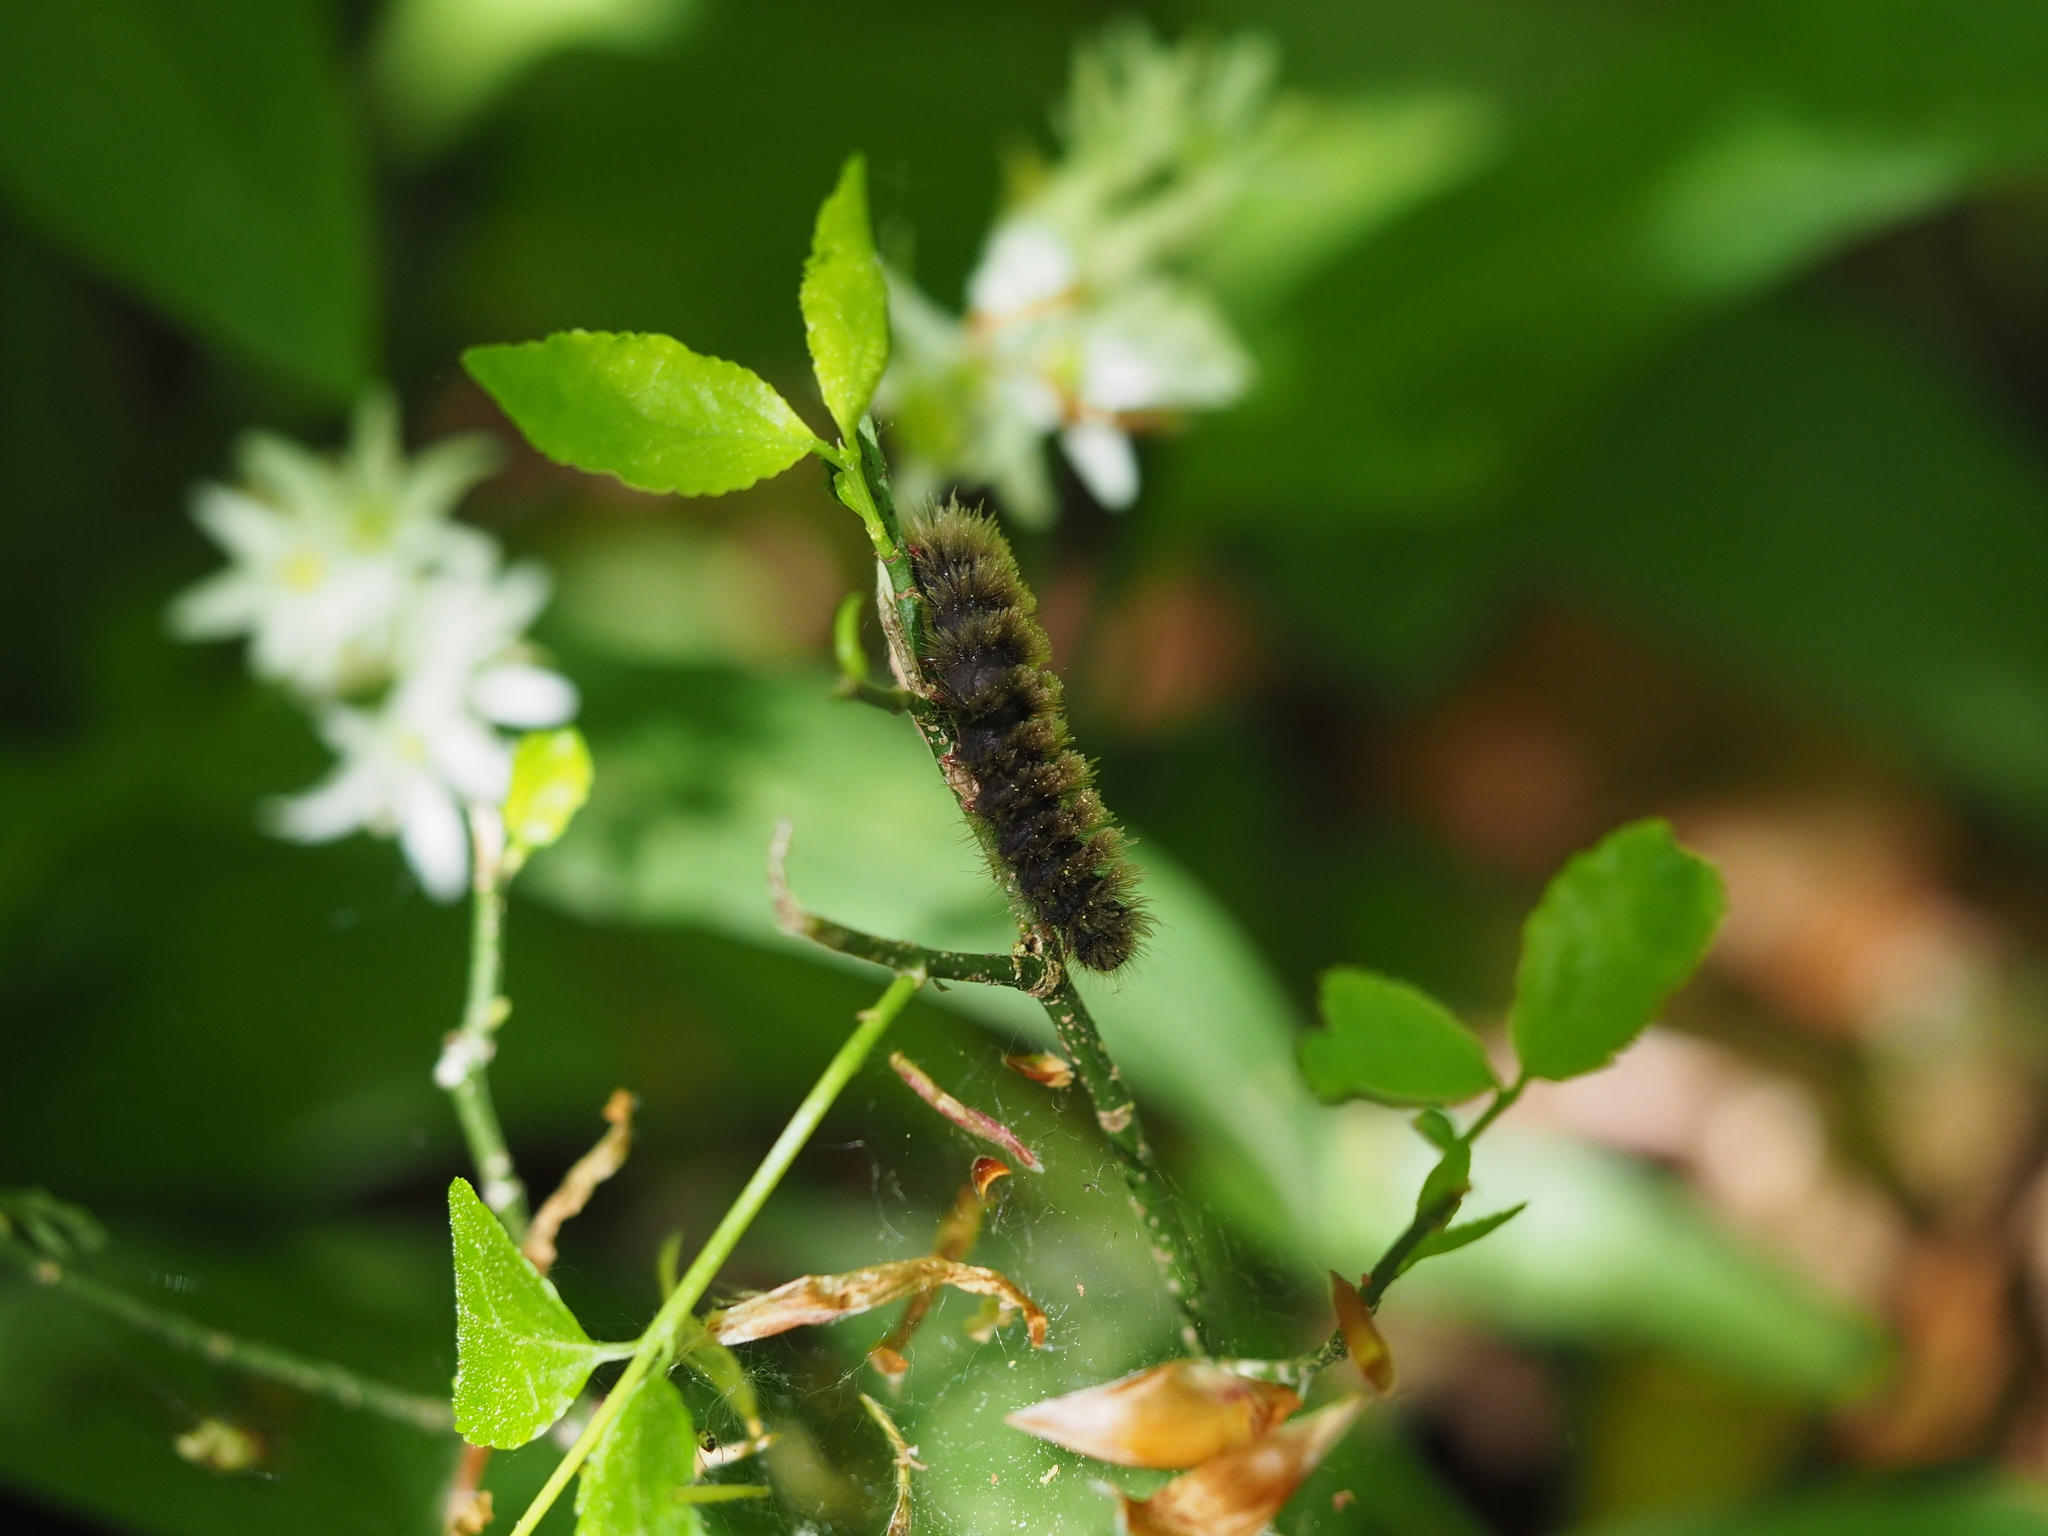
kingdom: Animalia
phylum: Arthropoda
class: Insecta
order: Lepidoptera
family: Erebidae
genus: Amata
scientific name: Amata phegea
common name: Nine-spotted
